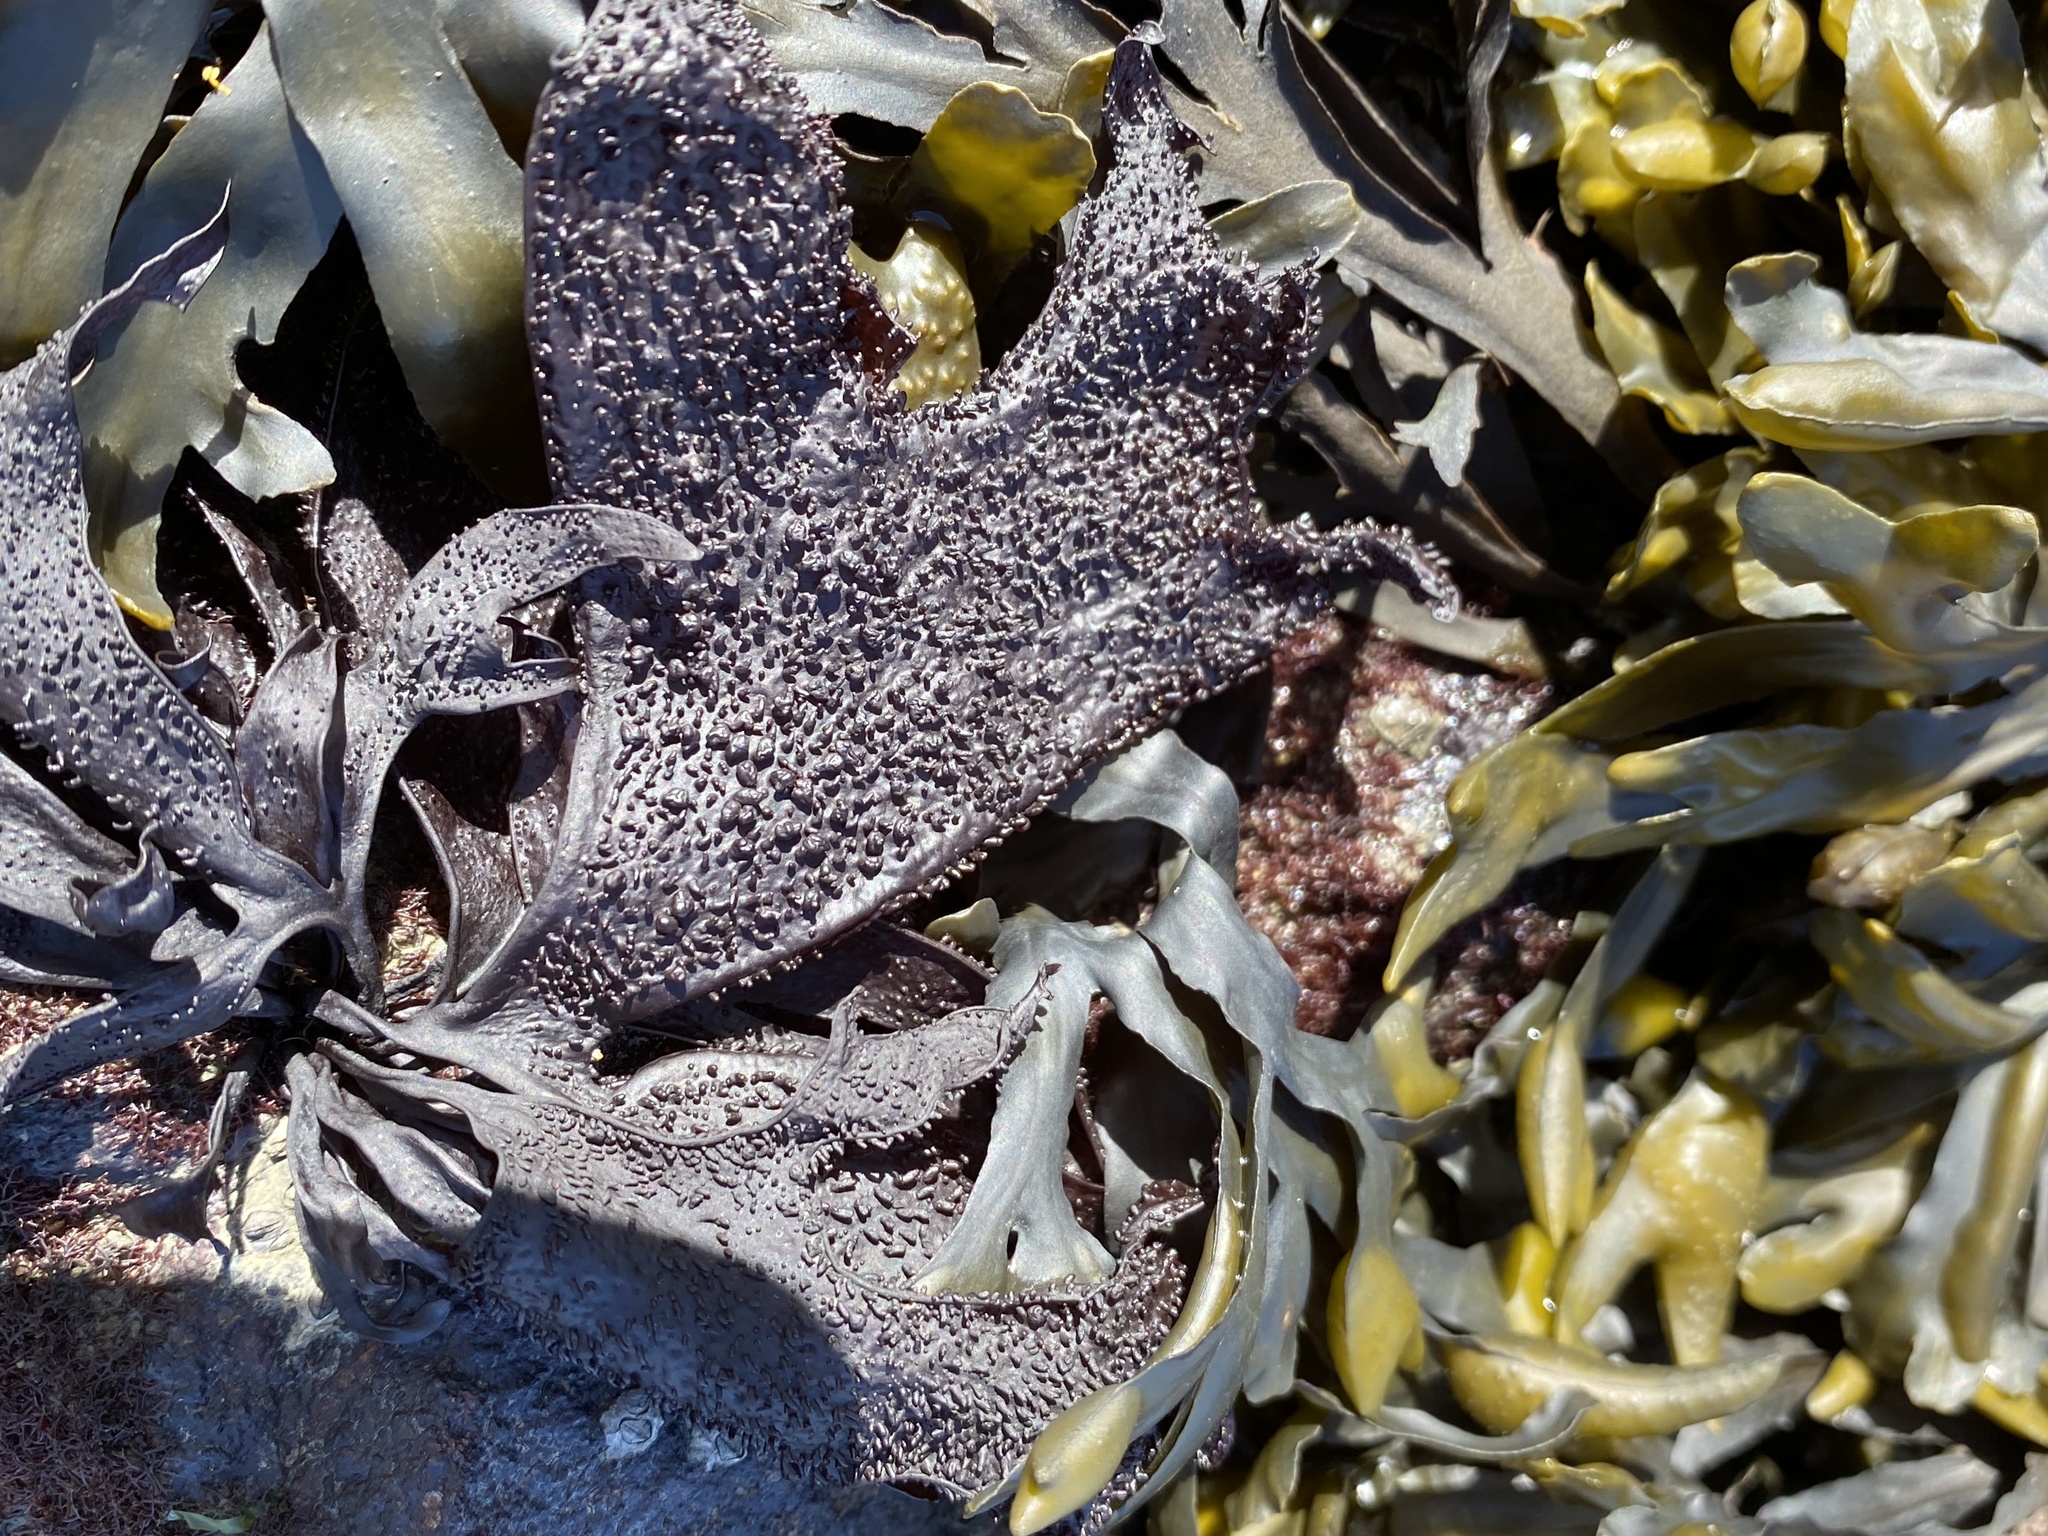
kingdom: Plantae
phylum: Rhodophyta
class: Florideophyceae
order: Gigartinales
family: Phyllophoraceae
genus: Mastocarpus
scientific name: Mastocarpus papillatus
